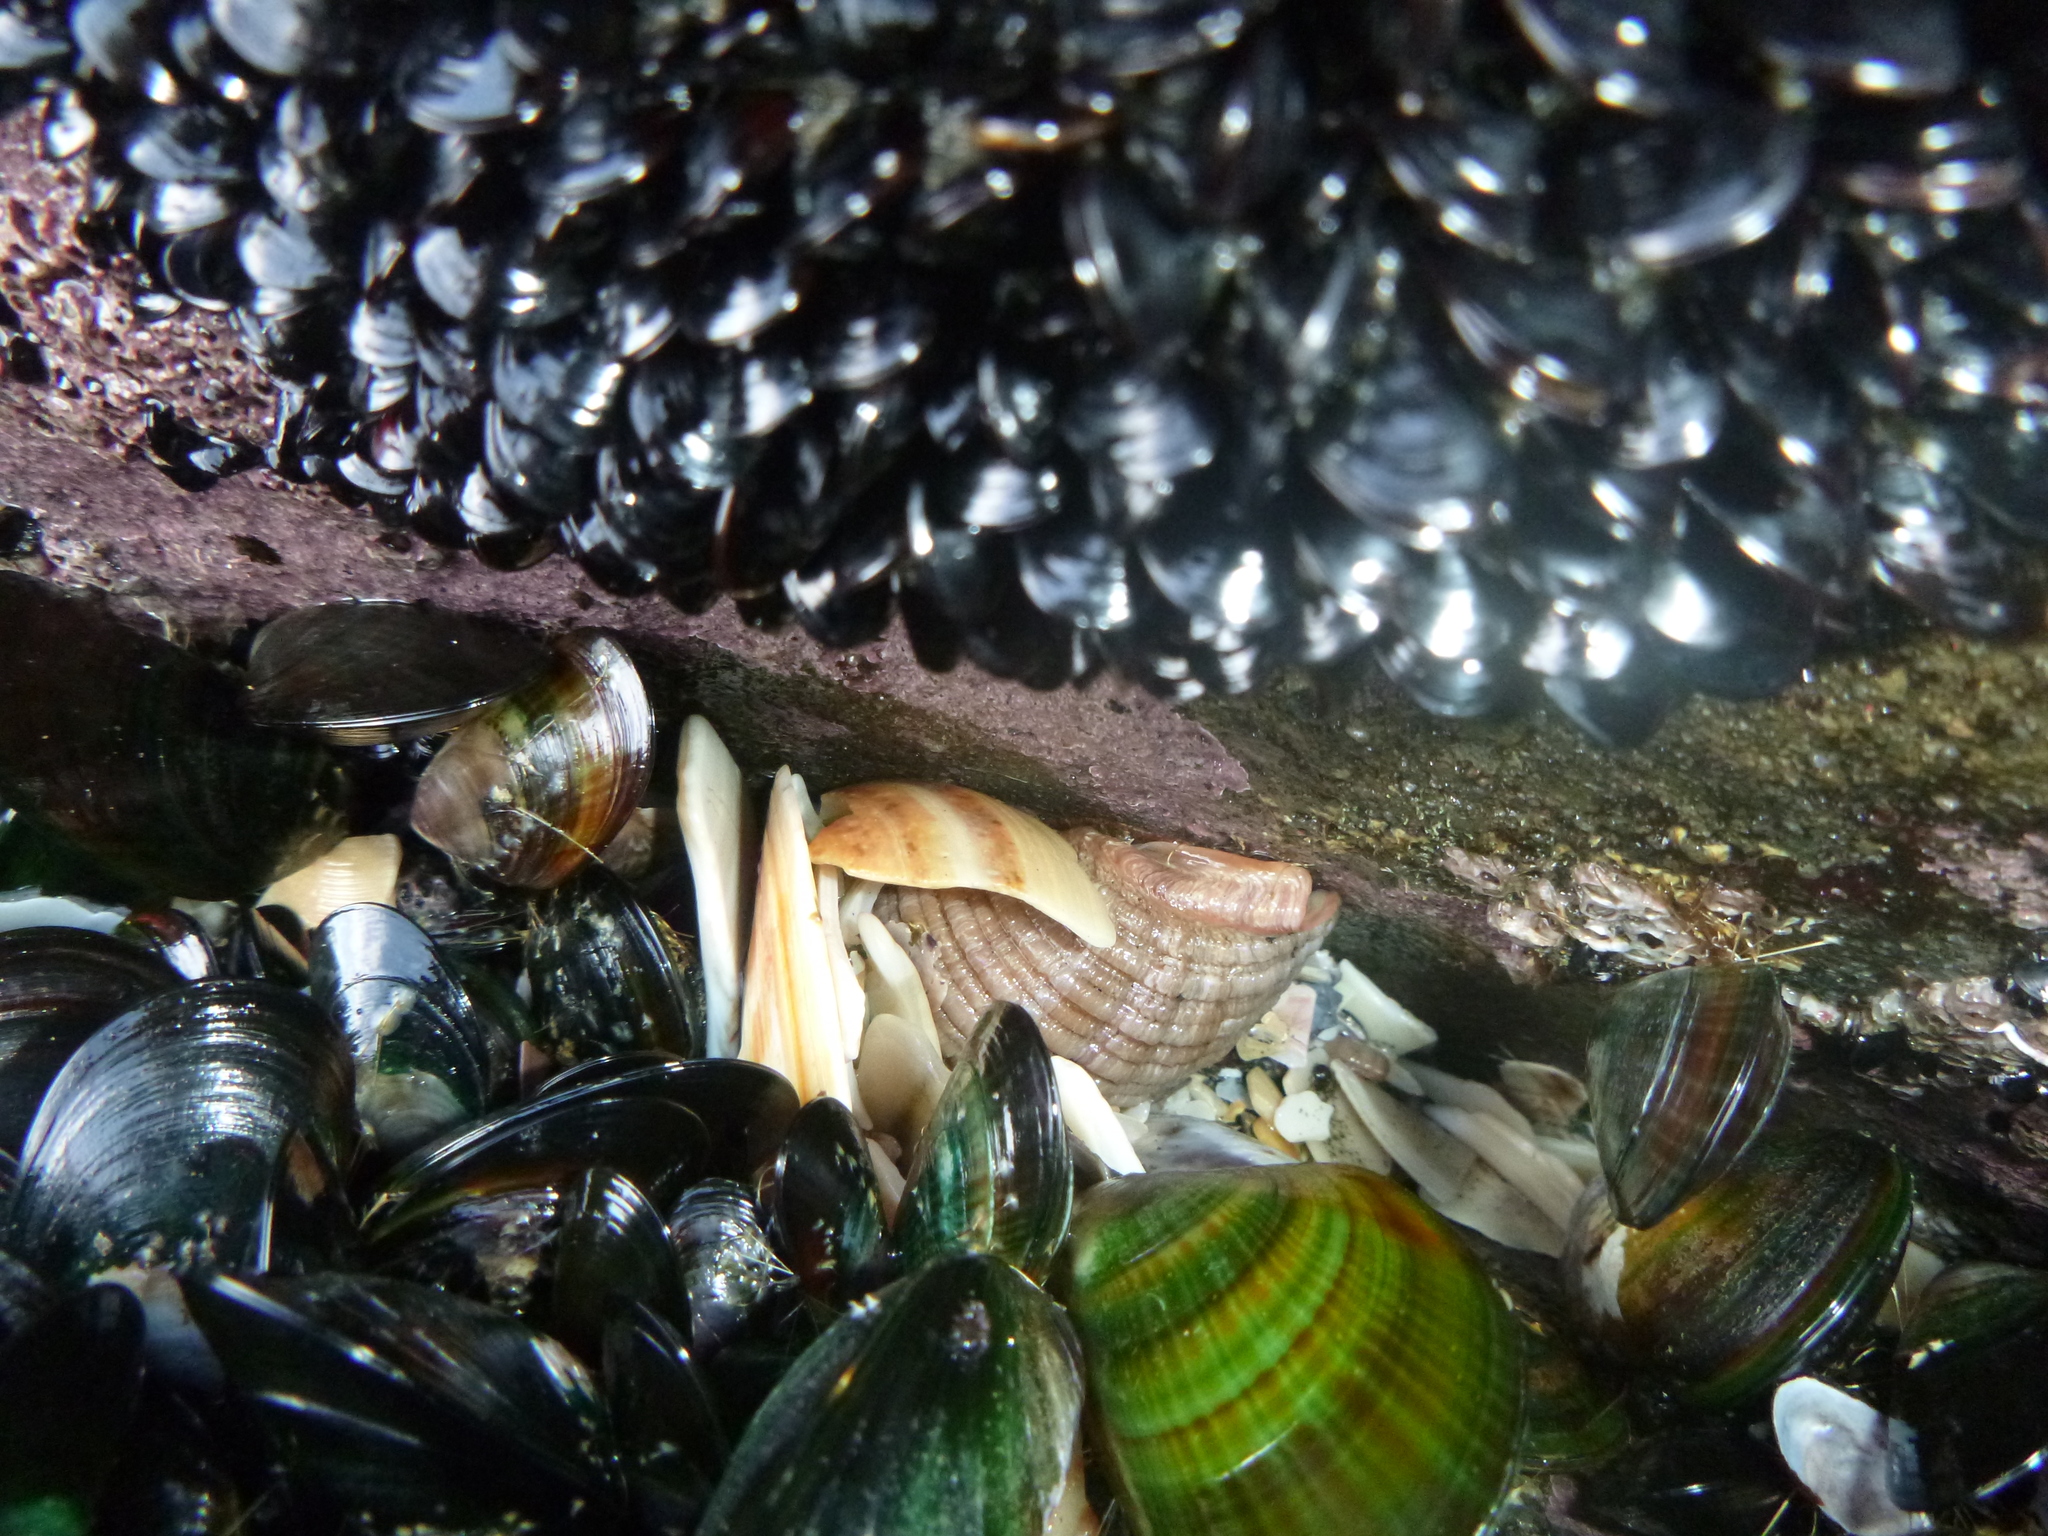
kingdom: Animalia
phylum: Mollusca
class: Gastropoda
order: Neogastropoda
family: Muricidae
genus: Dicathais
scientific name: Dicathais orbita
